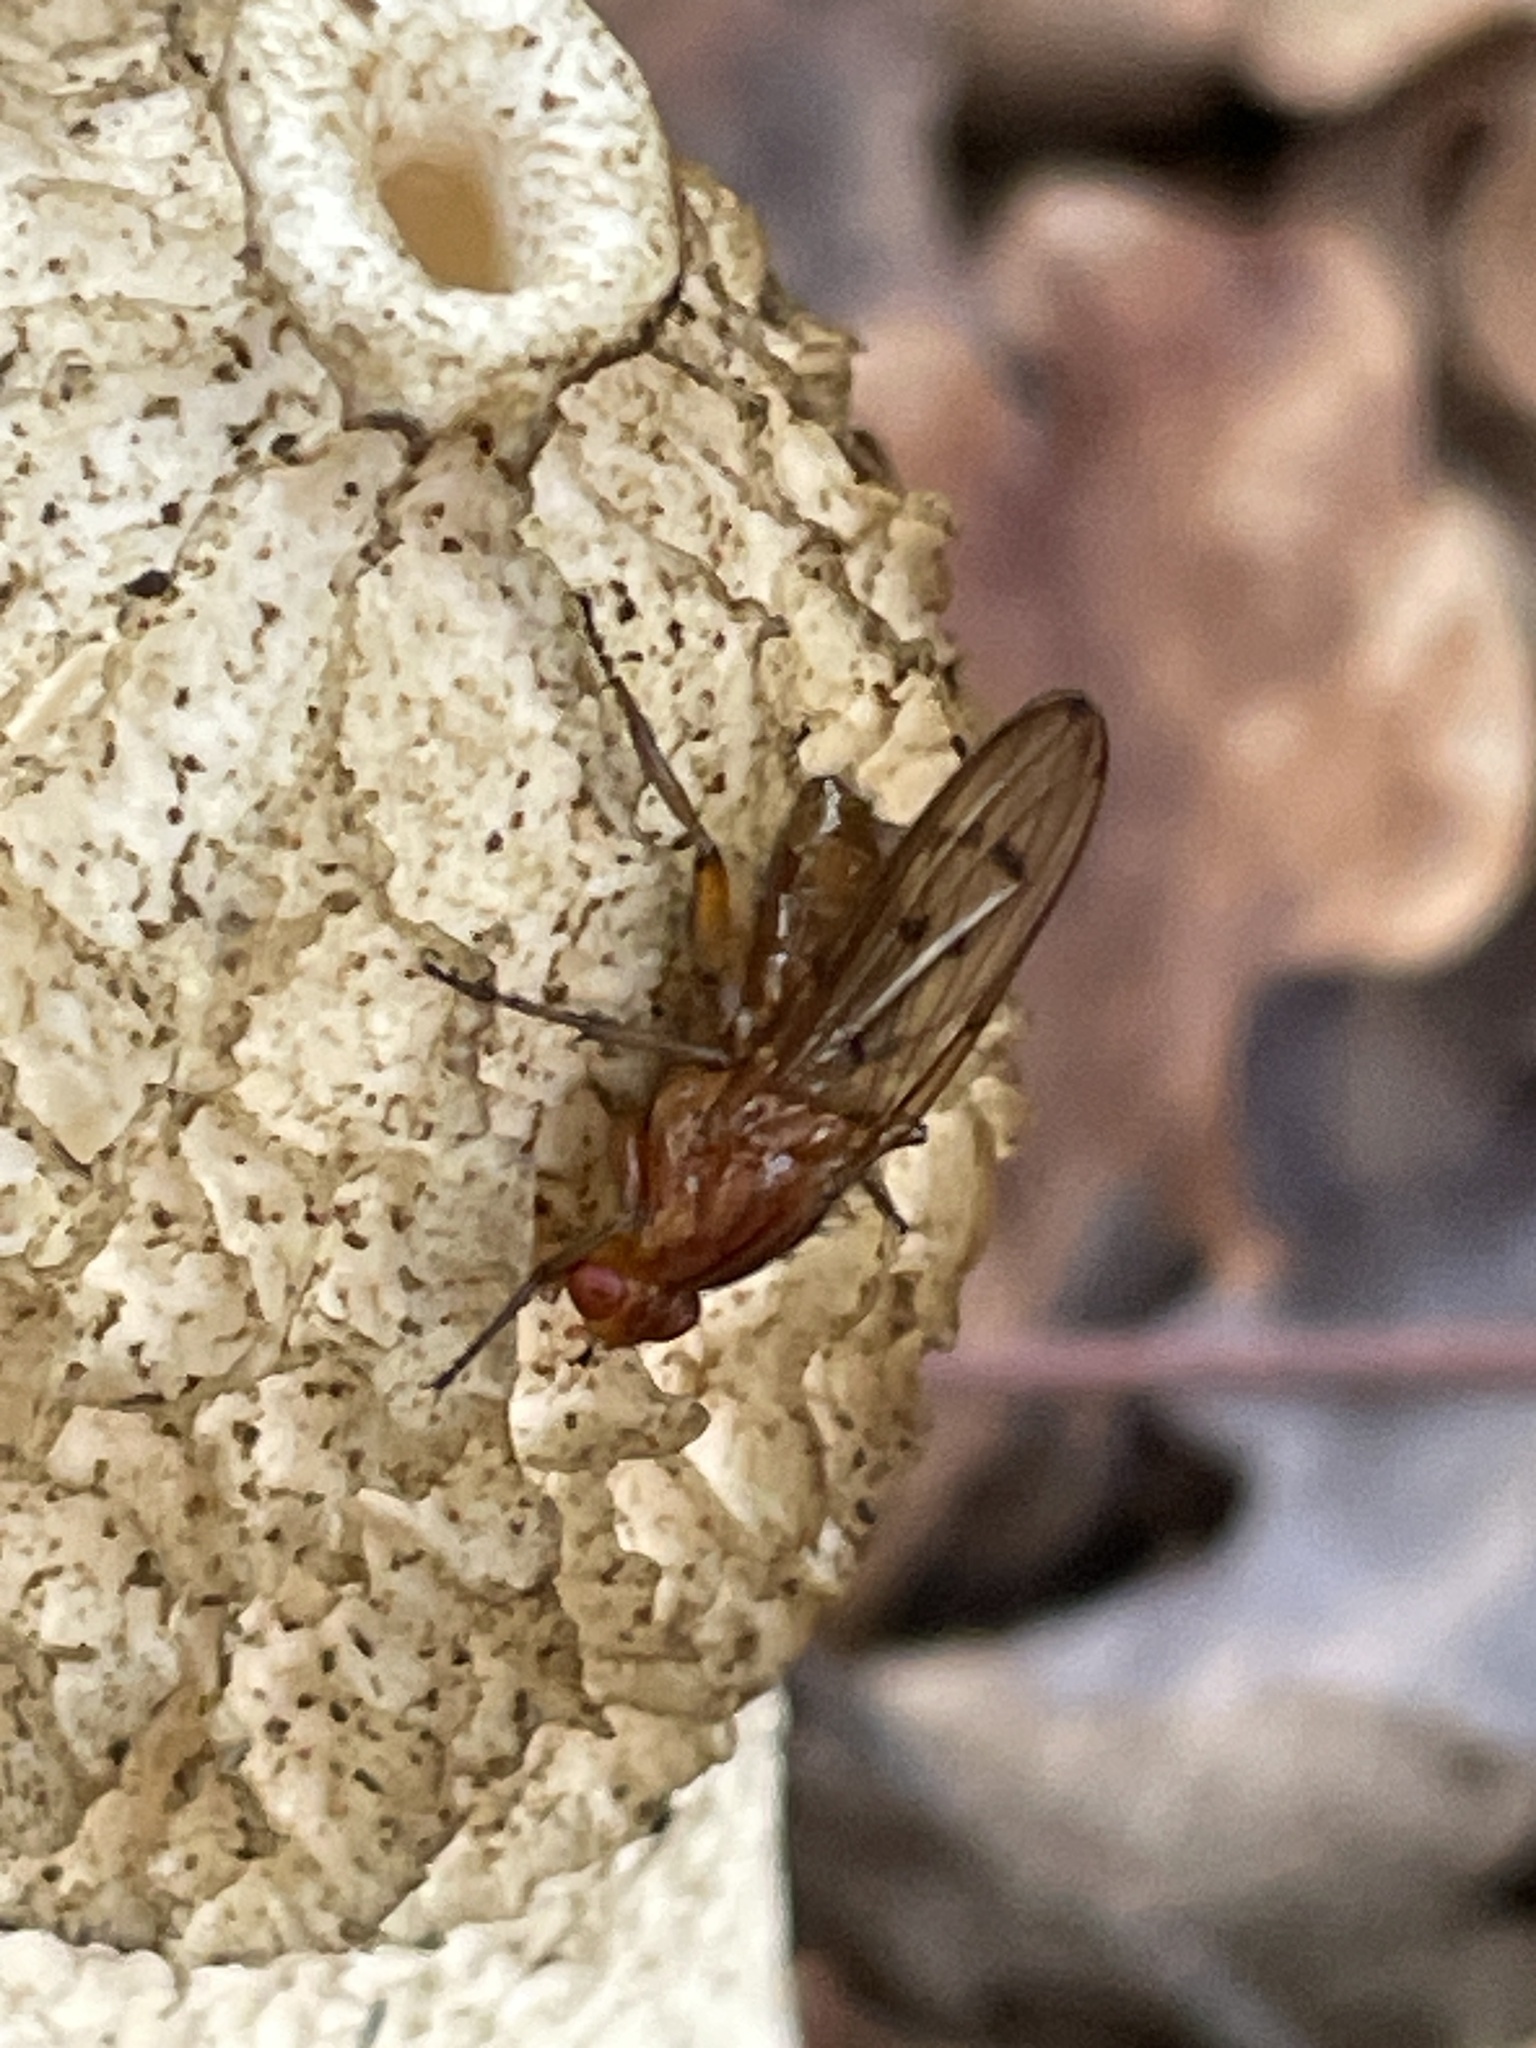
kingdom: Animalia
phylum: Arthropoda
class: Insecta
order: Diptera
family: Dryomyzidae
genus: Dryomyza
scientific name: Dryomyza anilis
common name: Marsh fly
